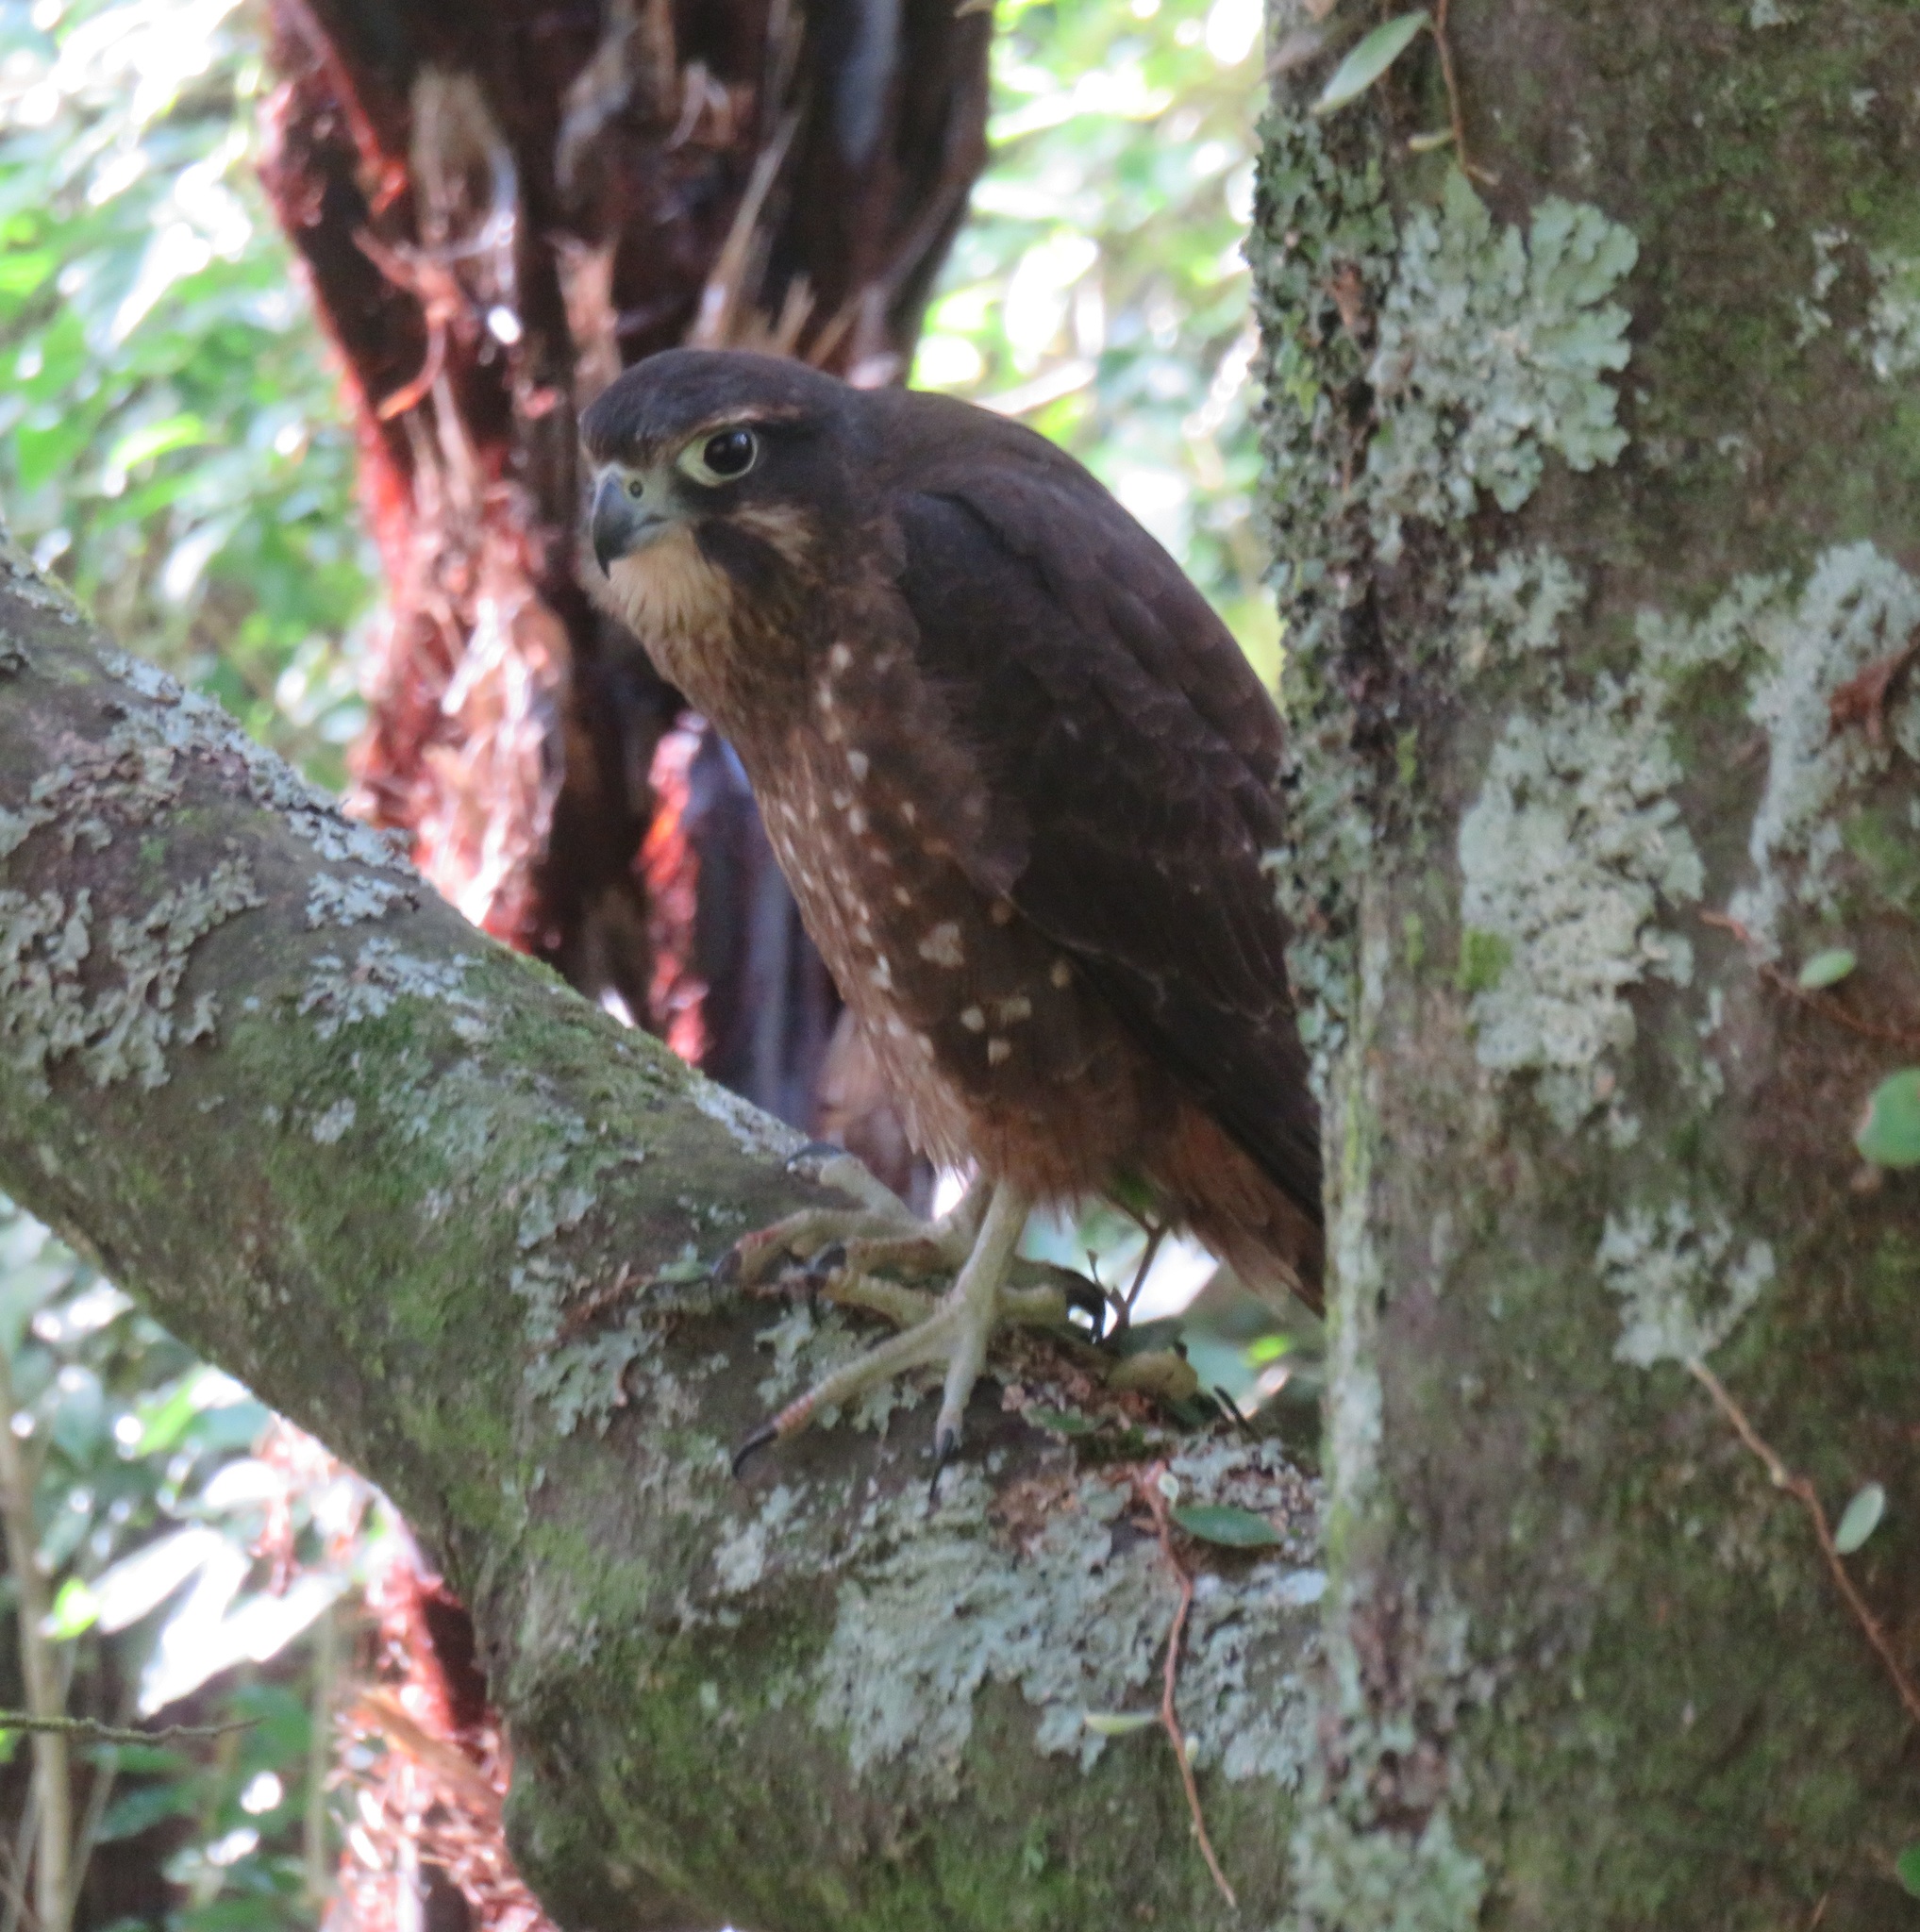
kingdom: Animalia
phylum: Chordata
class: Aves
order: Falconiformes
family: Falconidae
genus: Falco
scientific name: Falco novaeseelandiae
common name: New zealand falcon
